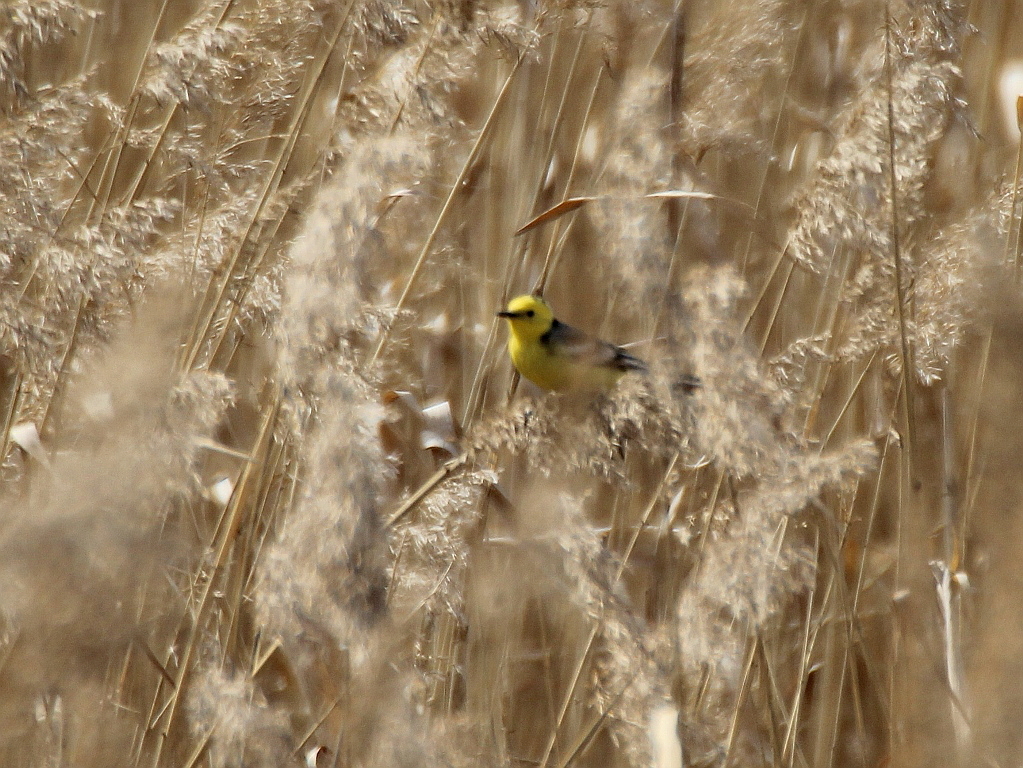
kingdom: Animalia
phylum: Chordata
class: Aves
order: Passeriformes
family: Motacillidae
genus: Motacilla
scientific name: Motacilla citreola
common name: Citrine wagtail
